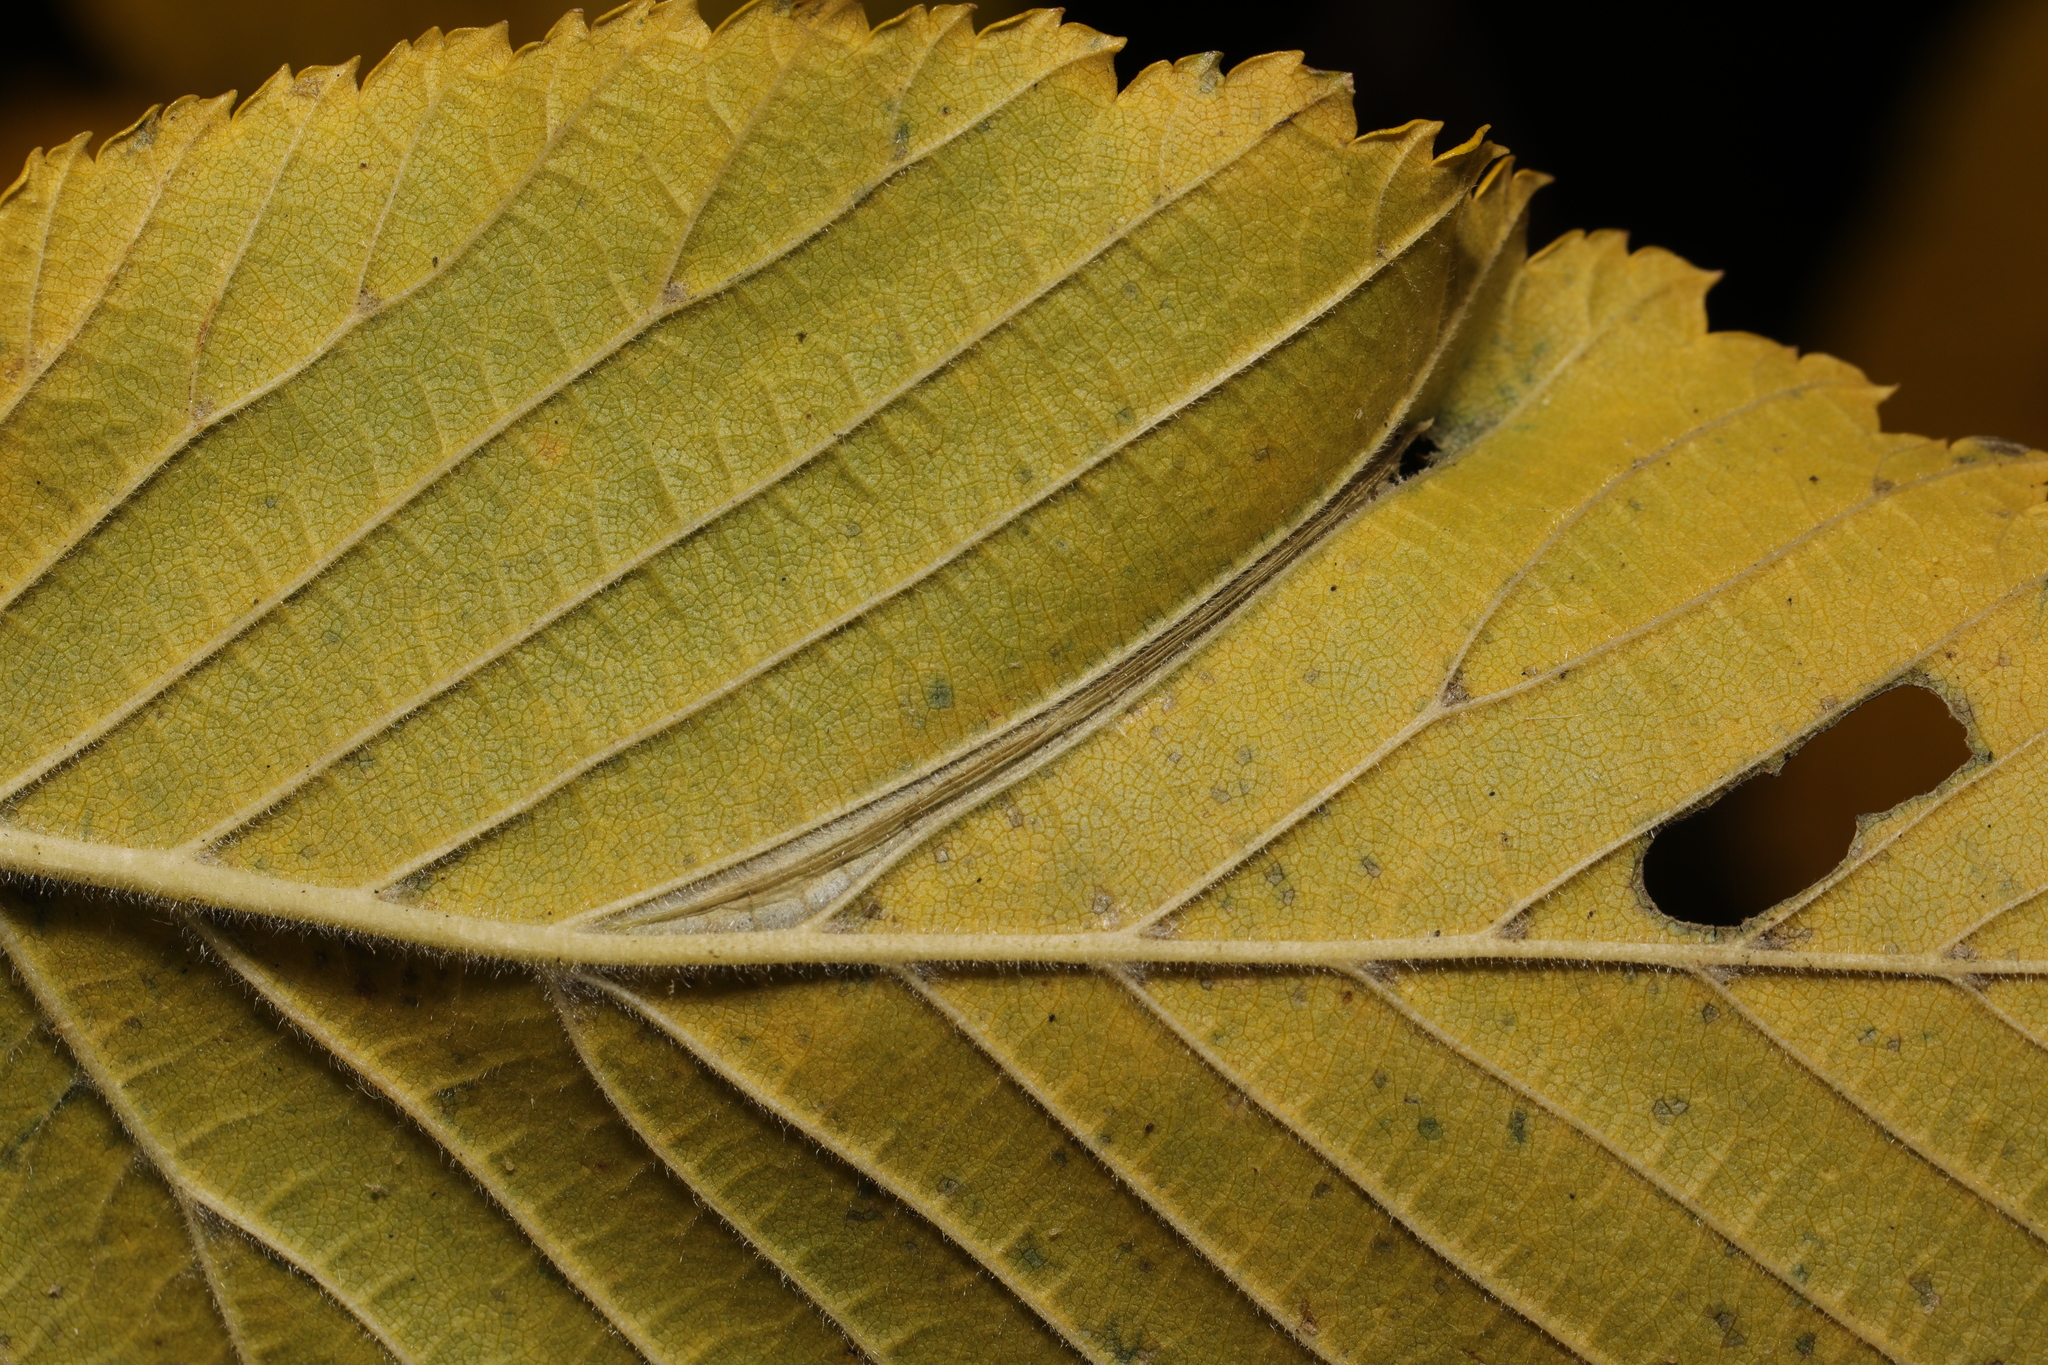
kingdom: Animalia
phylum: Arthropoda
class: Insecta
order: Lepidoptera
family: Gracillariidae
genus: Phyllonorycter
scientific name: Phyllonorycter tristrigella
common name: Elm midget
